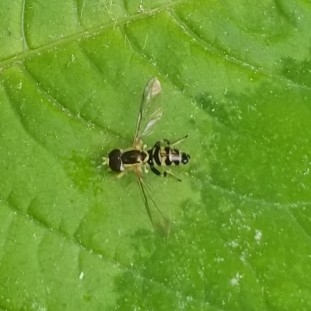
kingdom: Animalia
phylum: Arthropoda
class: Insecta
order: Diptera
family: Syrphidae
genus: Toxomerus
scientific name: Toxomerus geminatus
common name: Eastern calligrapher
